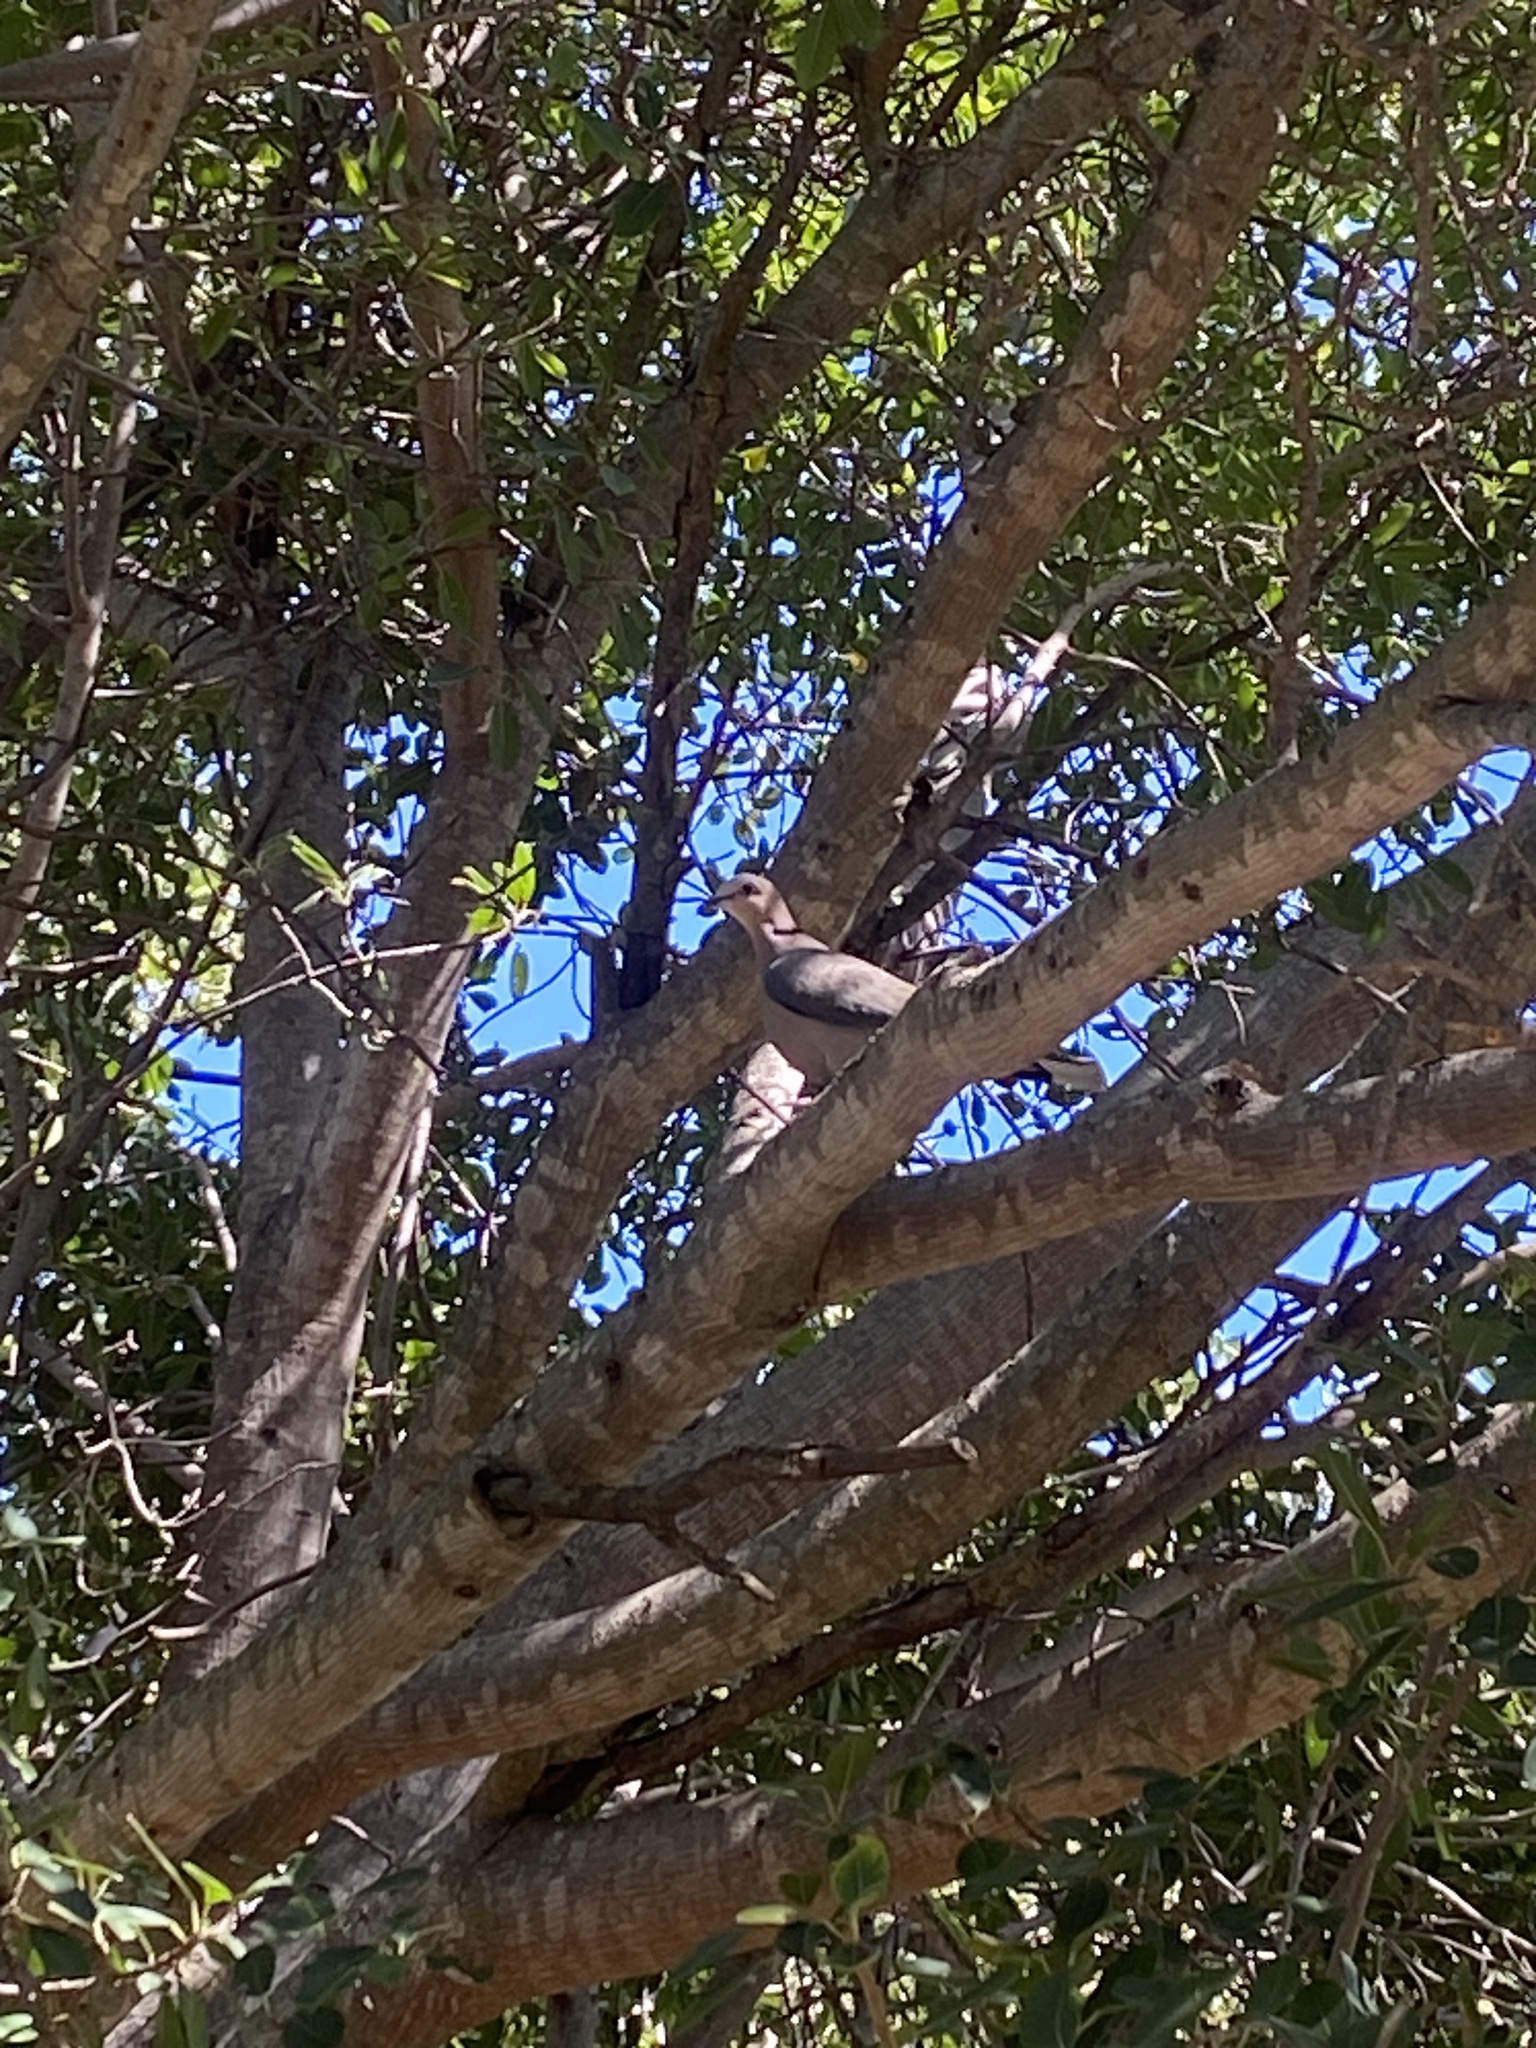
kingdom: Animalia
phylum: Chordata
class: Aves
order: Columbiformes
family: Columbidae
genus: Streptopelia
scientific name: Streptopelia semitorquata
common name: Red-eyed dove
